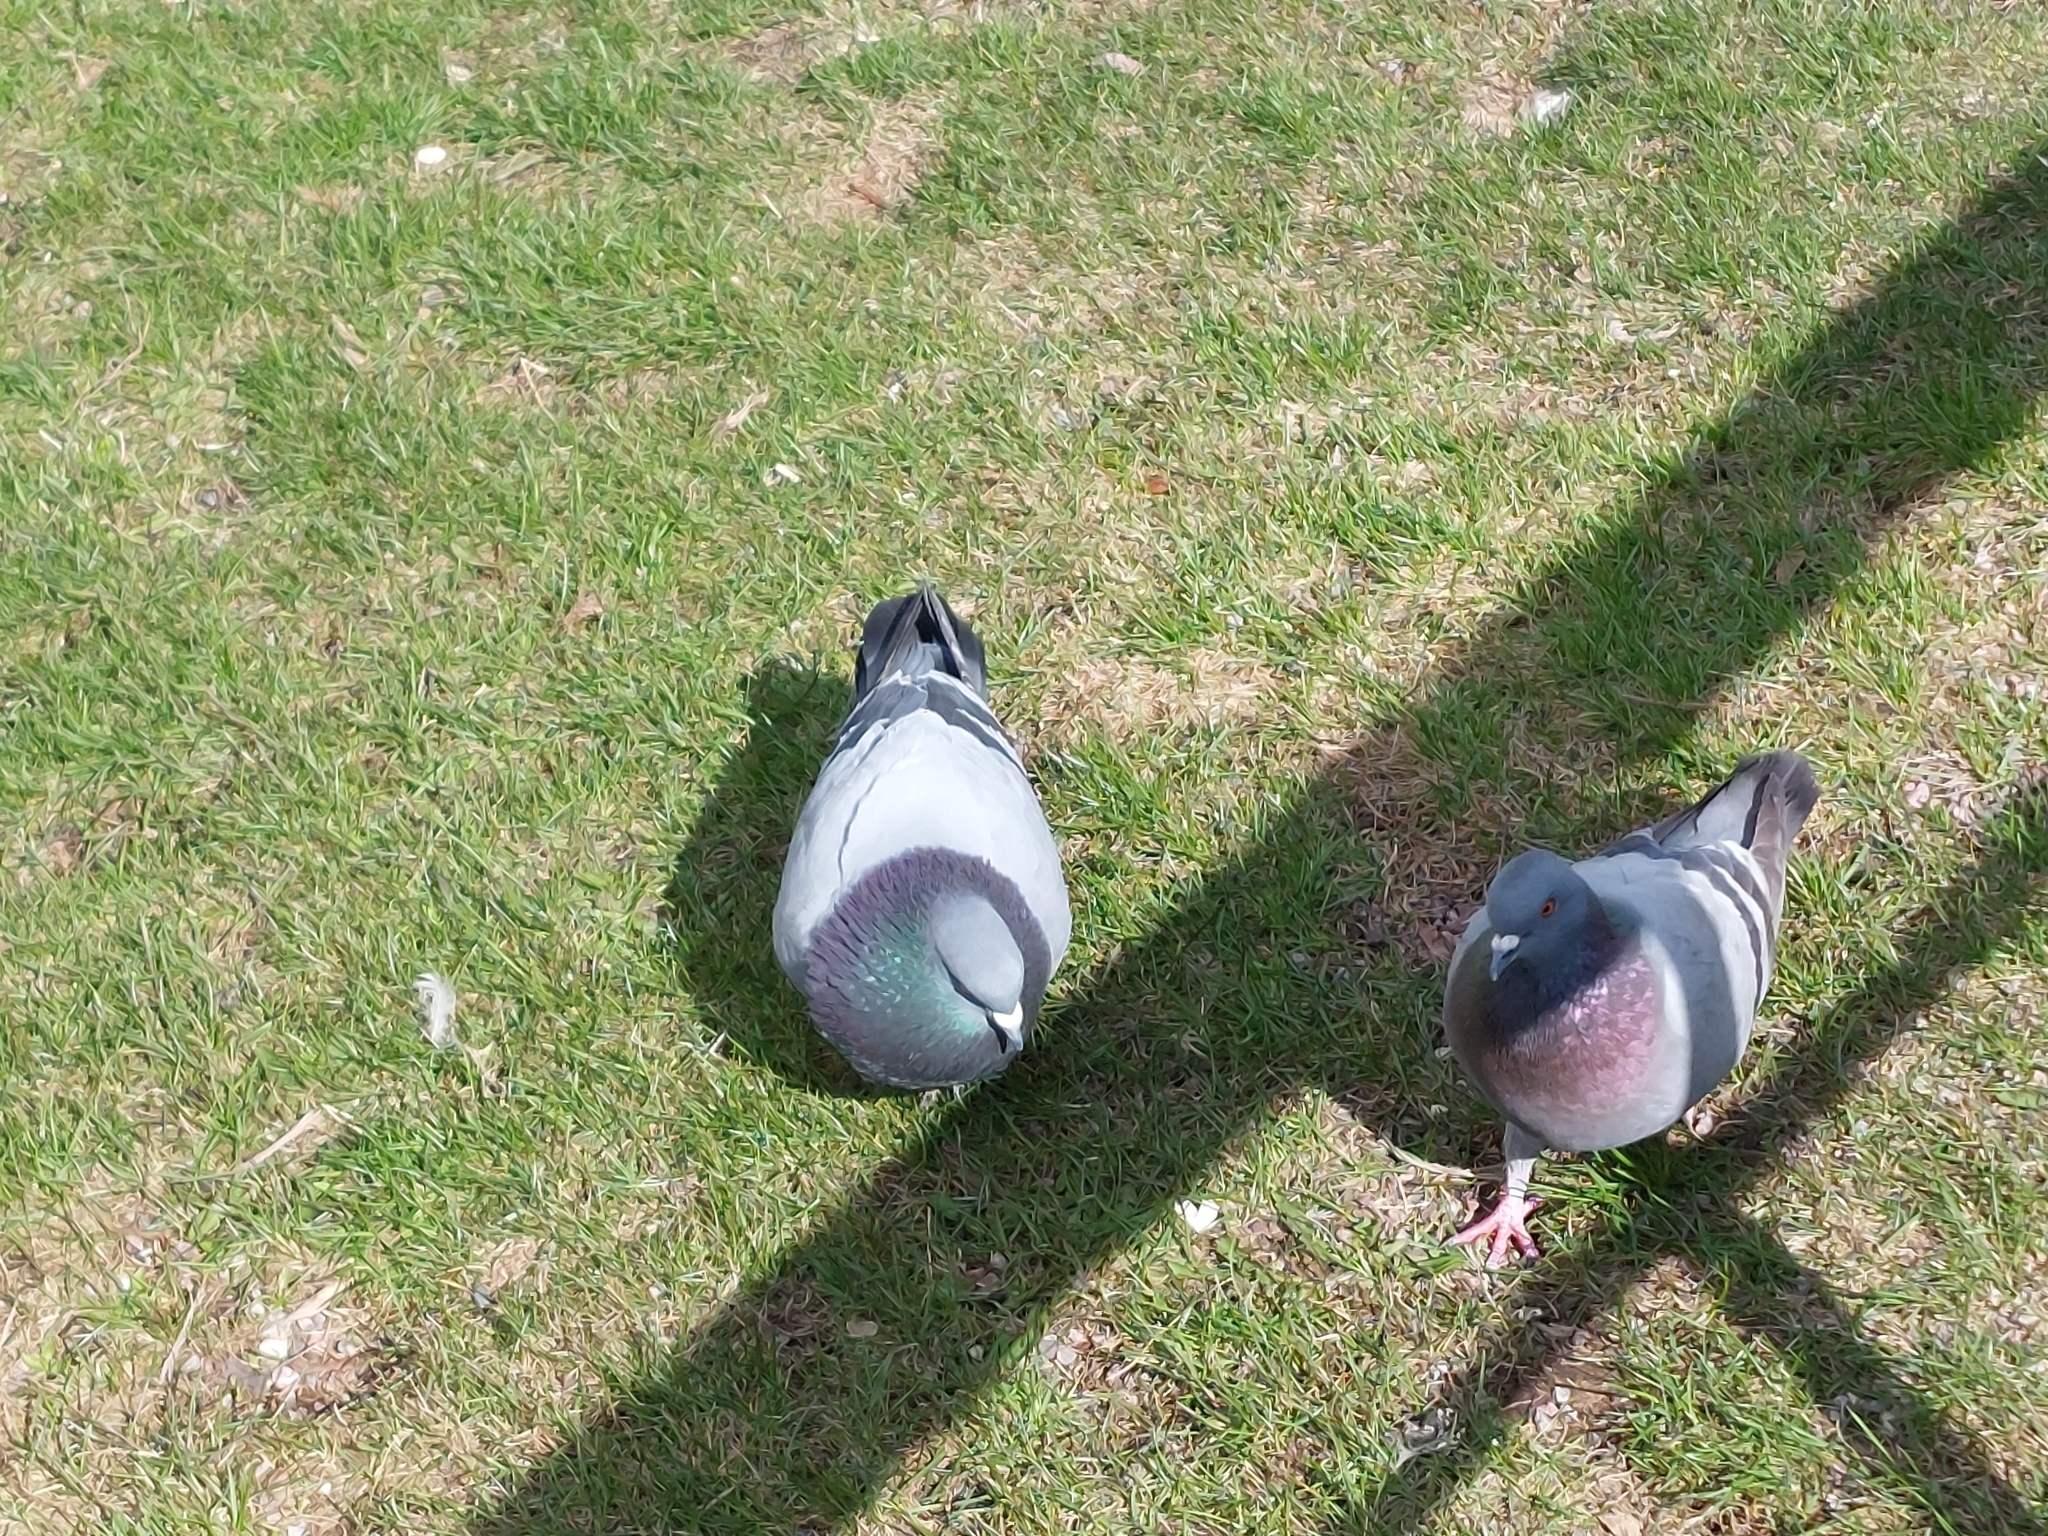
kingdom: Animalia
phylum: Chordata
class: Aves
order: Columbiformes
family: Columbidae
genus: Columba
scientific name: Columba livia
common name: Rock pigeon
